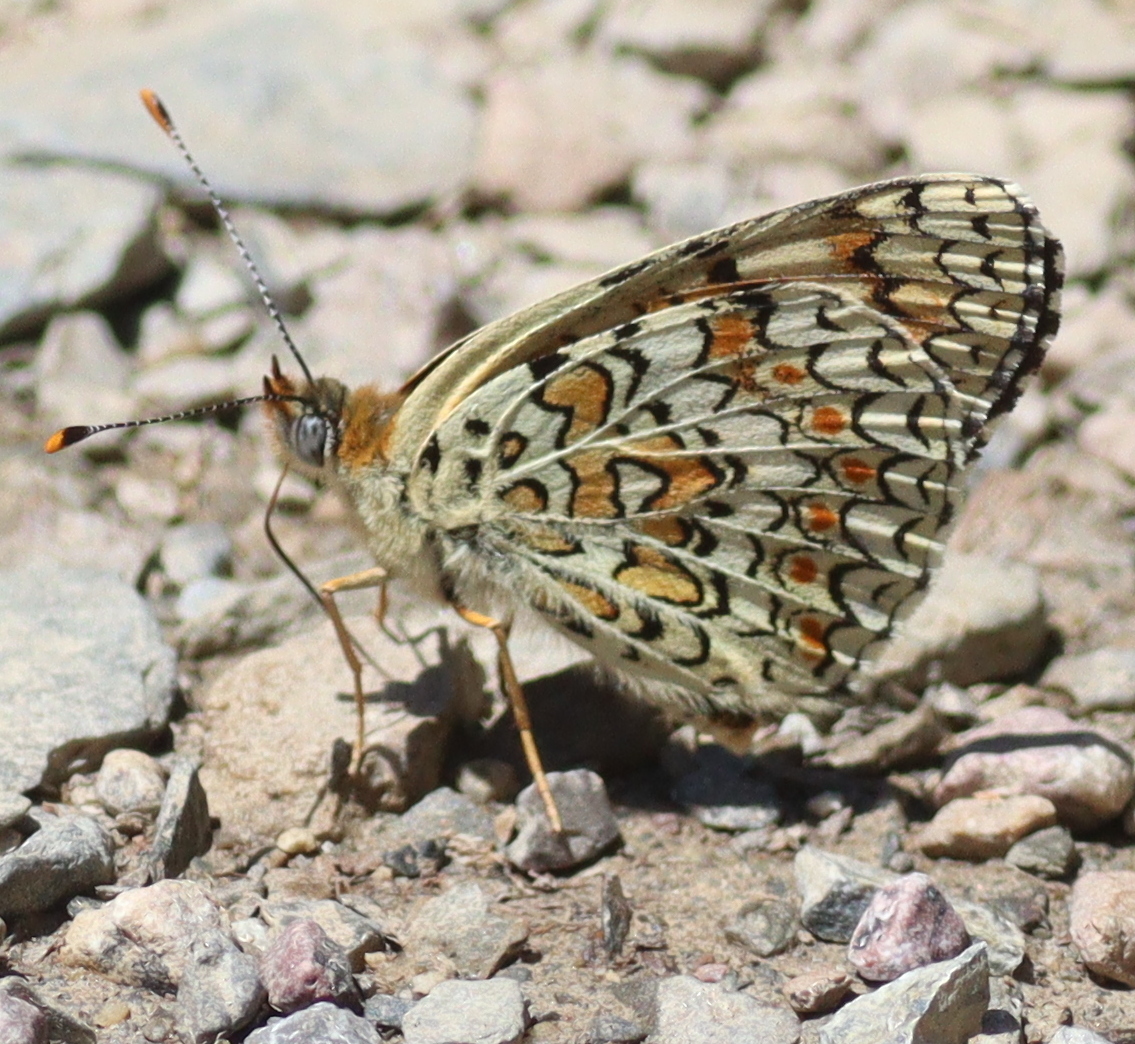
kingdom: Animalia
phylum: Arthropoda
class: Insecta
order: Lepidoptera
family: Nymphalidae
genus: Melitaea
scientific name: Melitaea phoebe
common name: Knapweed fritillary
